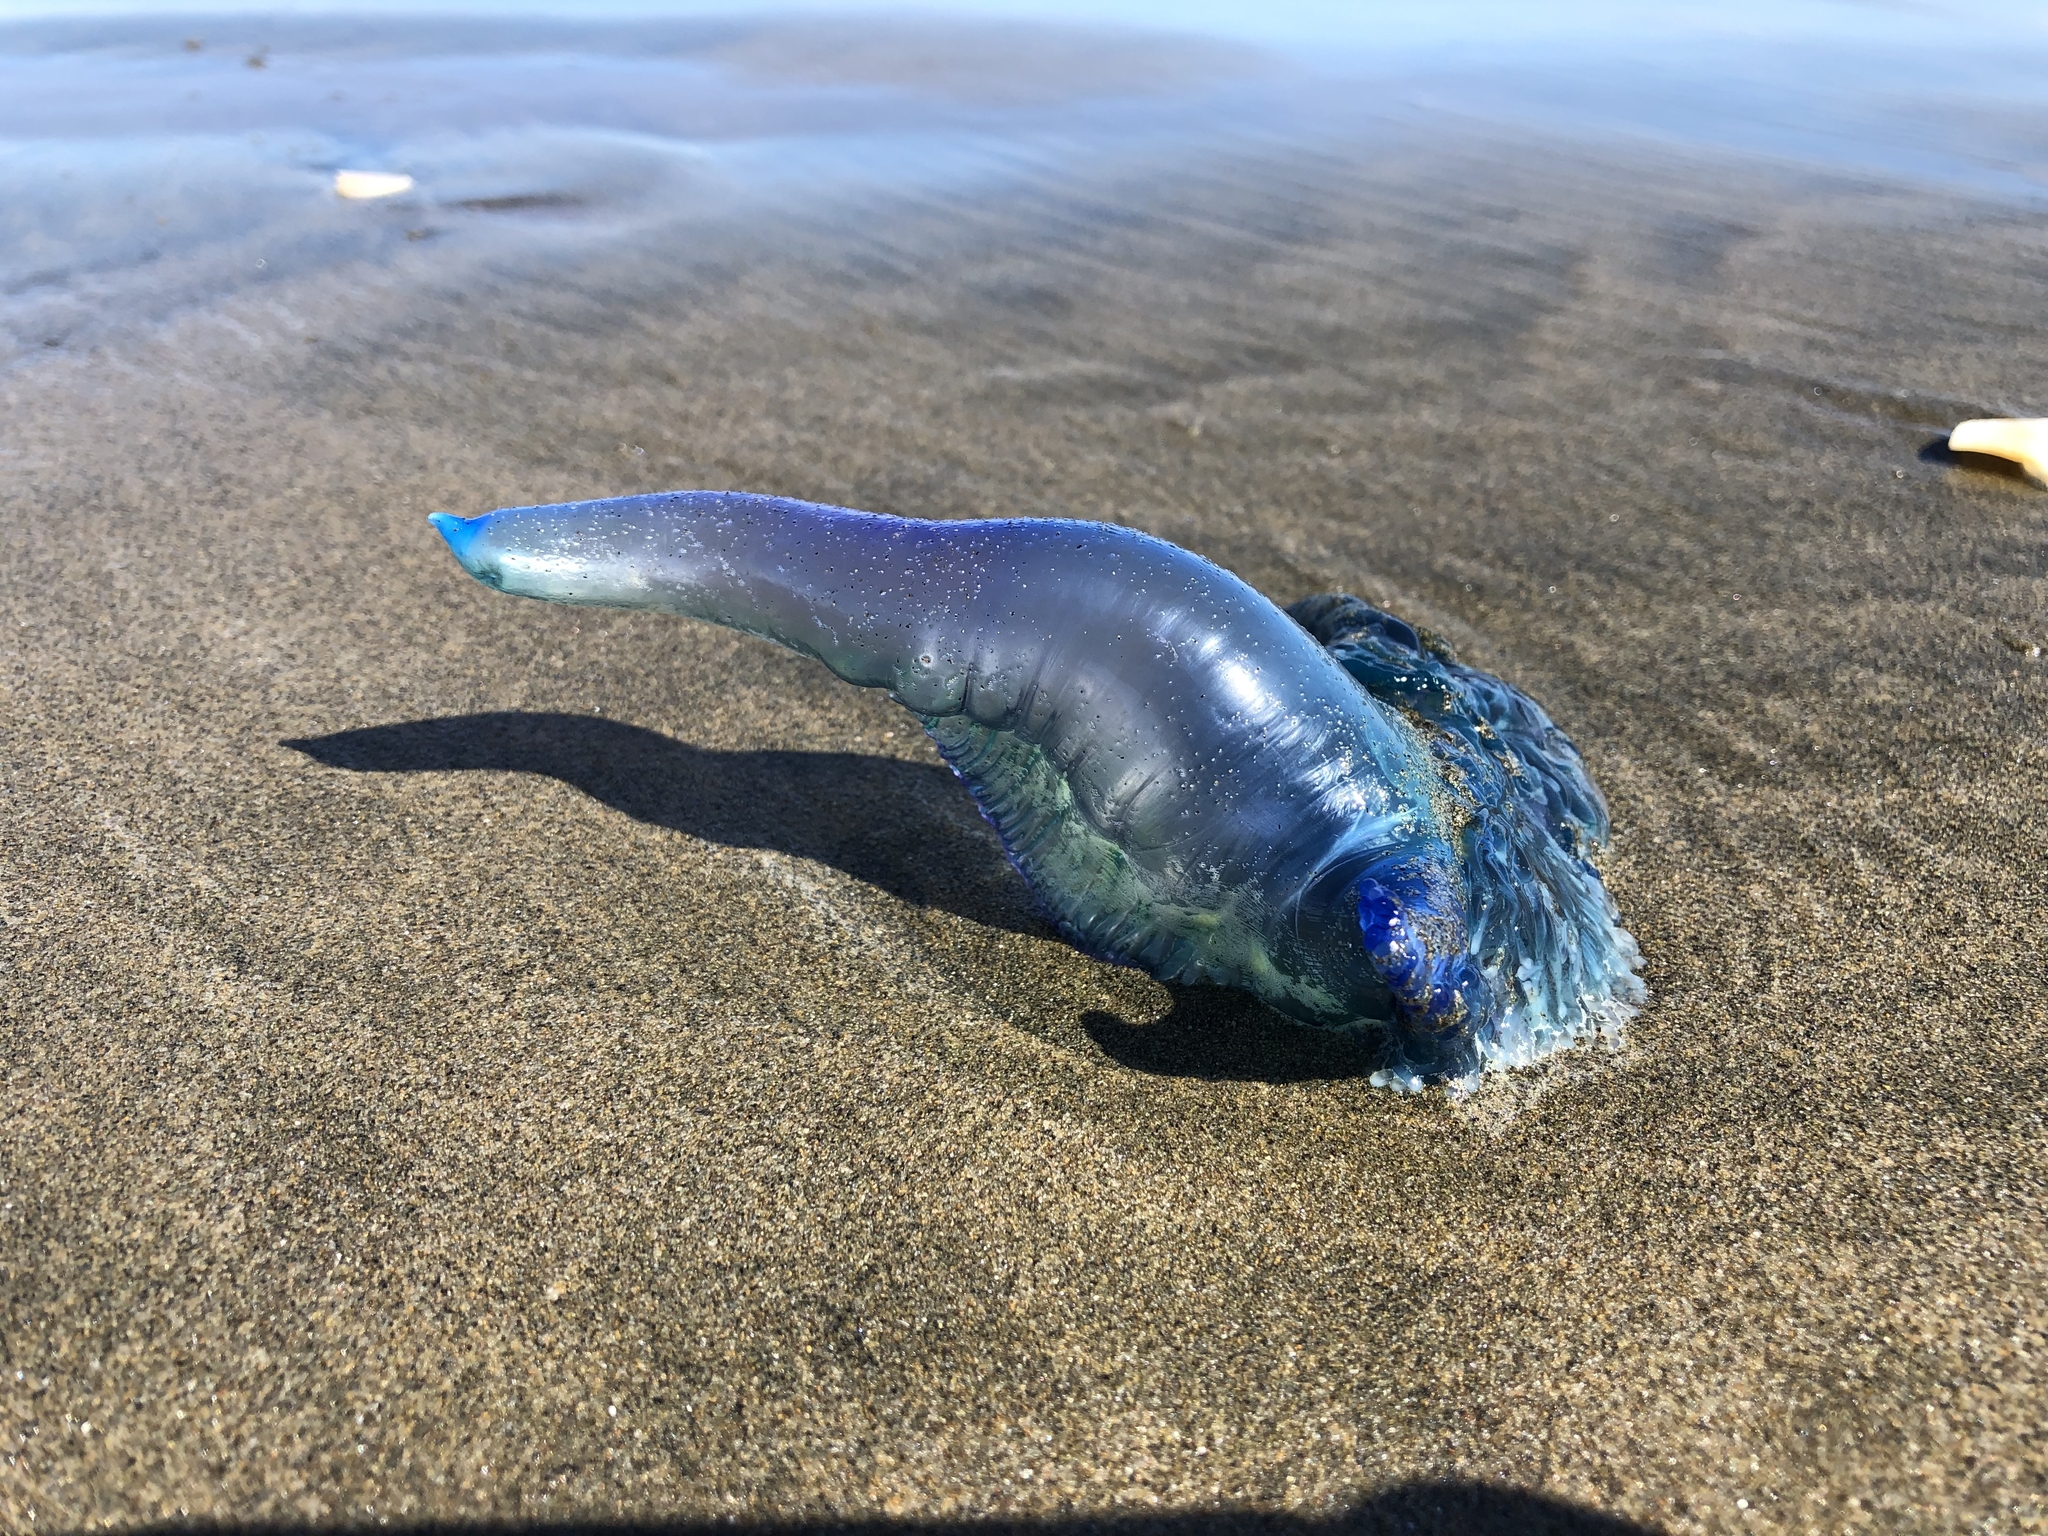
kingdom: Animalia
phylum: Cnidaria
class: Hydrozoa
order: Siphonophorae
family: Physaliidae
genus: Physalia
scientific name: Physalia physalis
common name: Portuguese man-of-war
